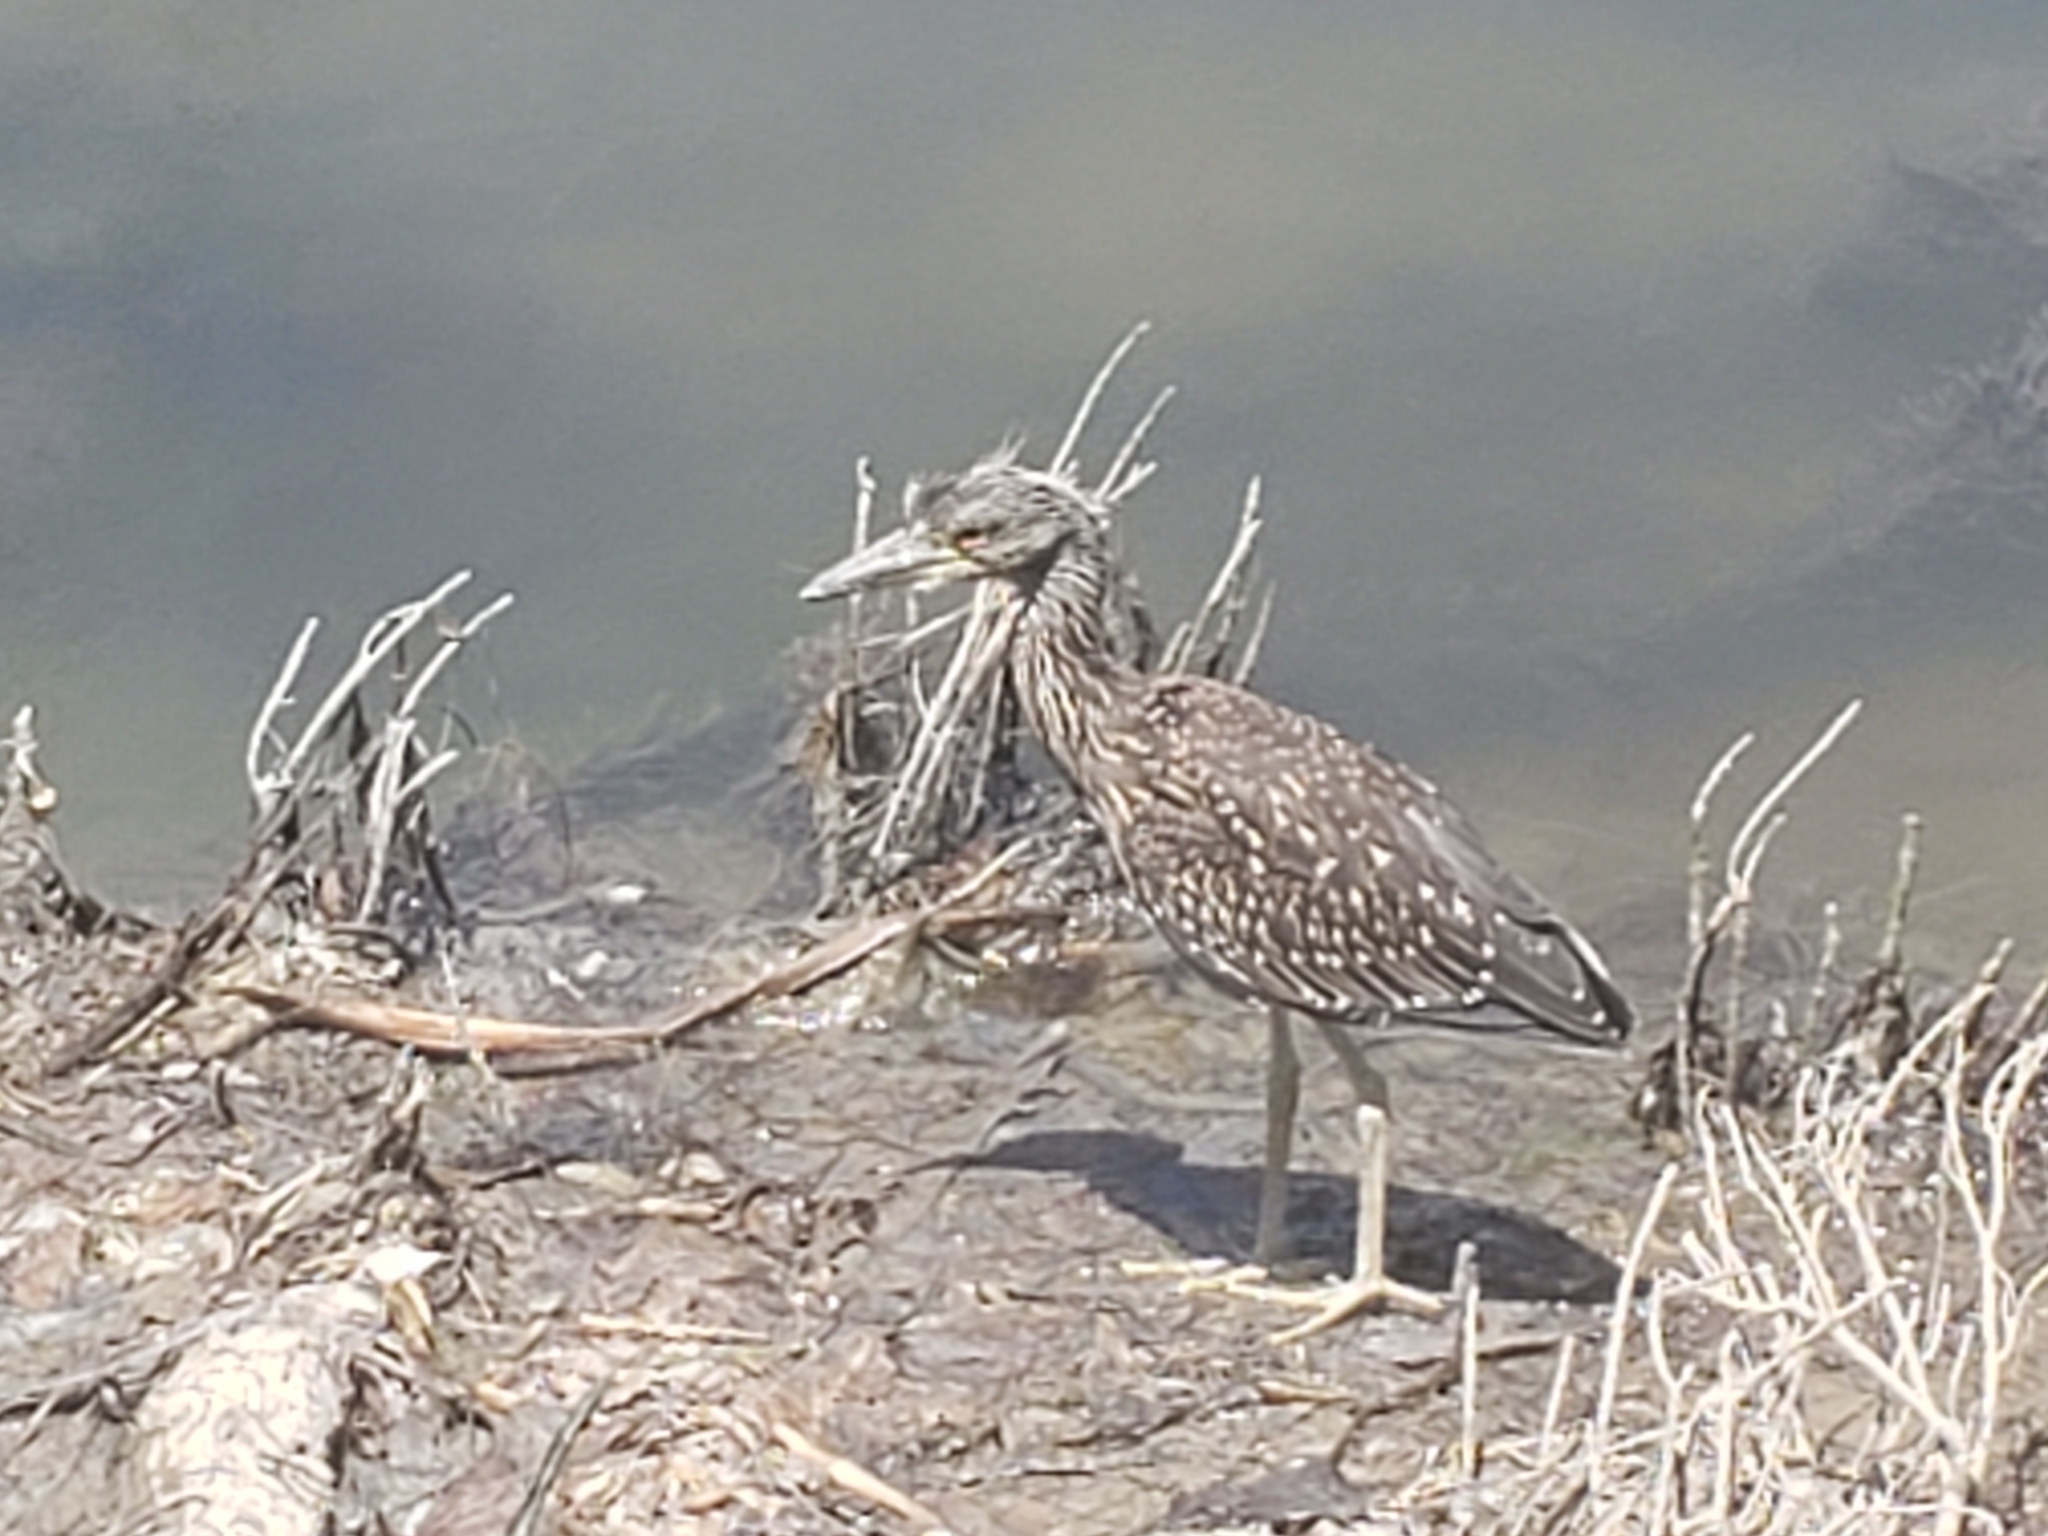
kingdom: Animalia
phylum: Chordata
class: Aves
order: Pelecaniformes
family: Ardeidae
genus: Nyctanassa
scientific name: Nyctanassa violacea
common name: Yellow-crowned night heron
